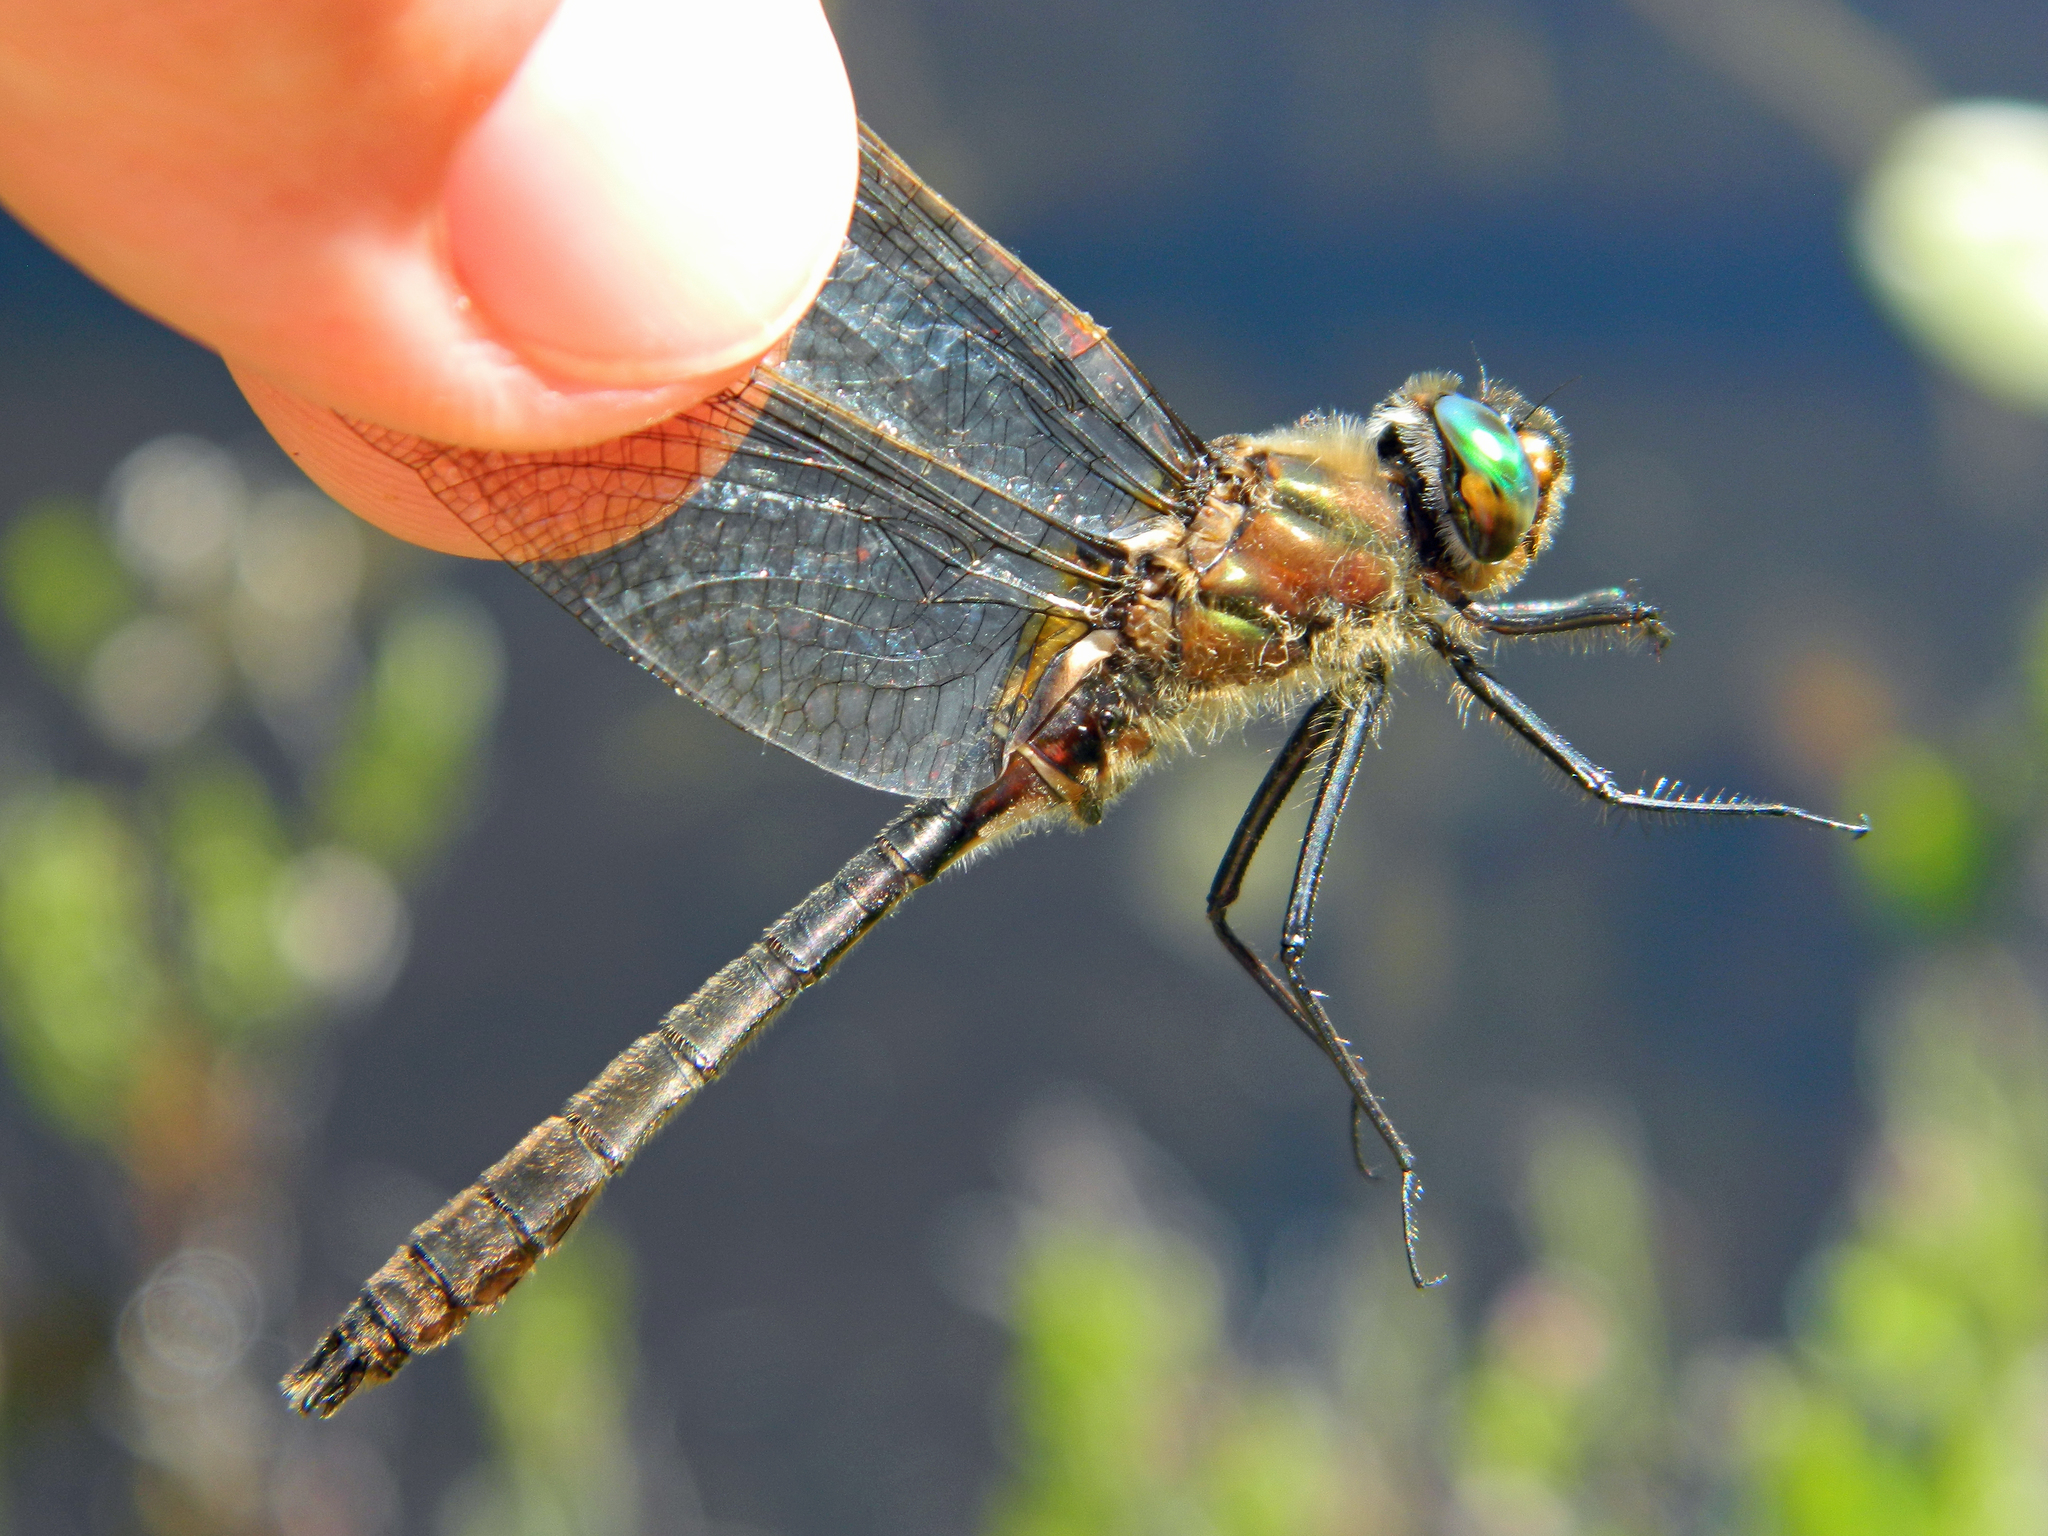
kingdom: Animalia
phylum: Arthropoda
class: Insecta
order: Odonata
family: Corduliidae
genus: Cordulia
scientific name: Cordulia shurtleffii
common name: American emerald
